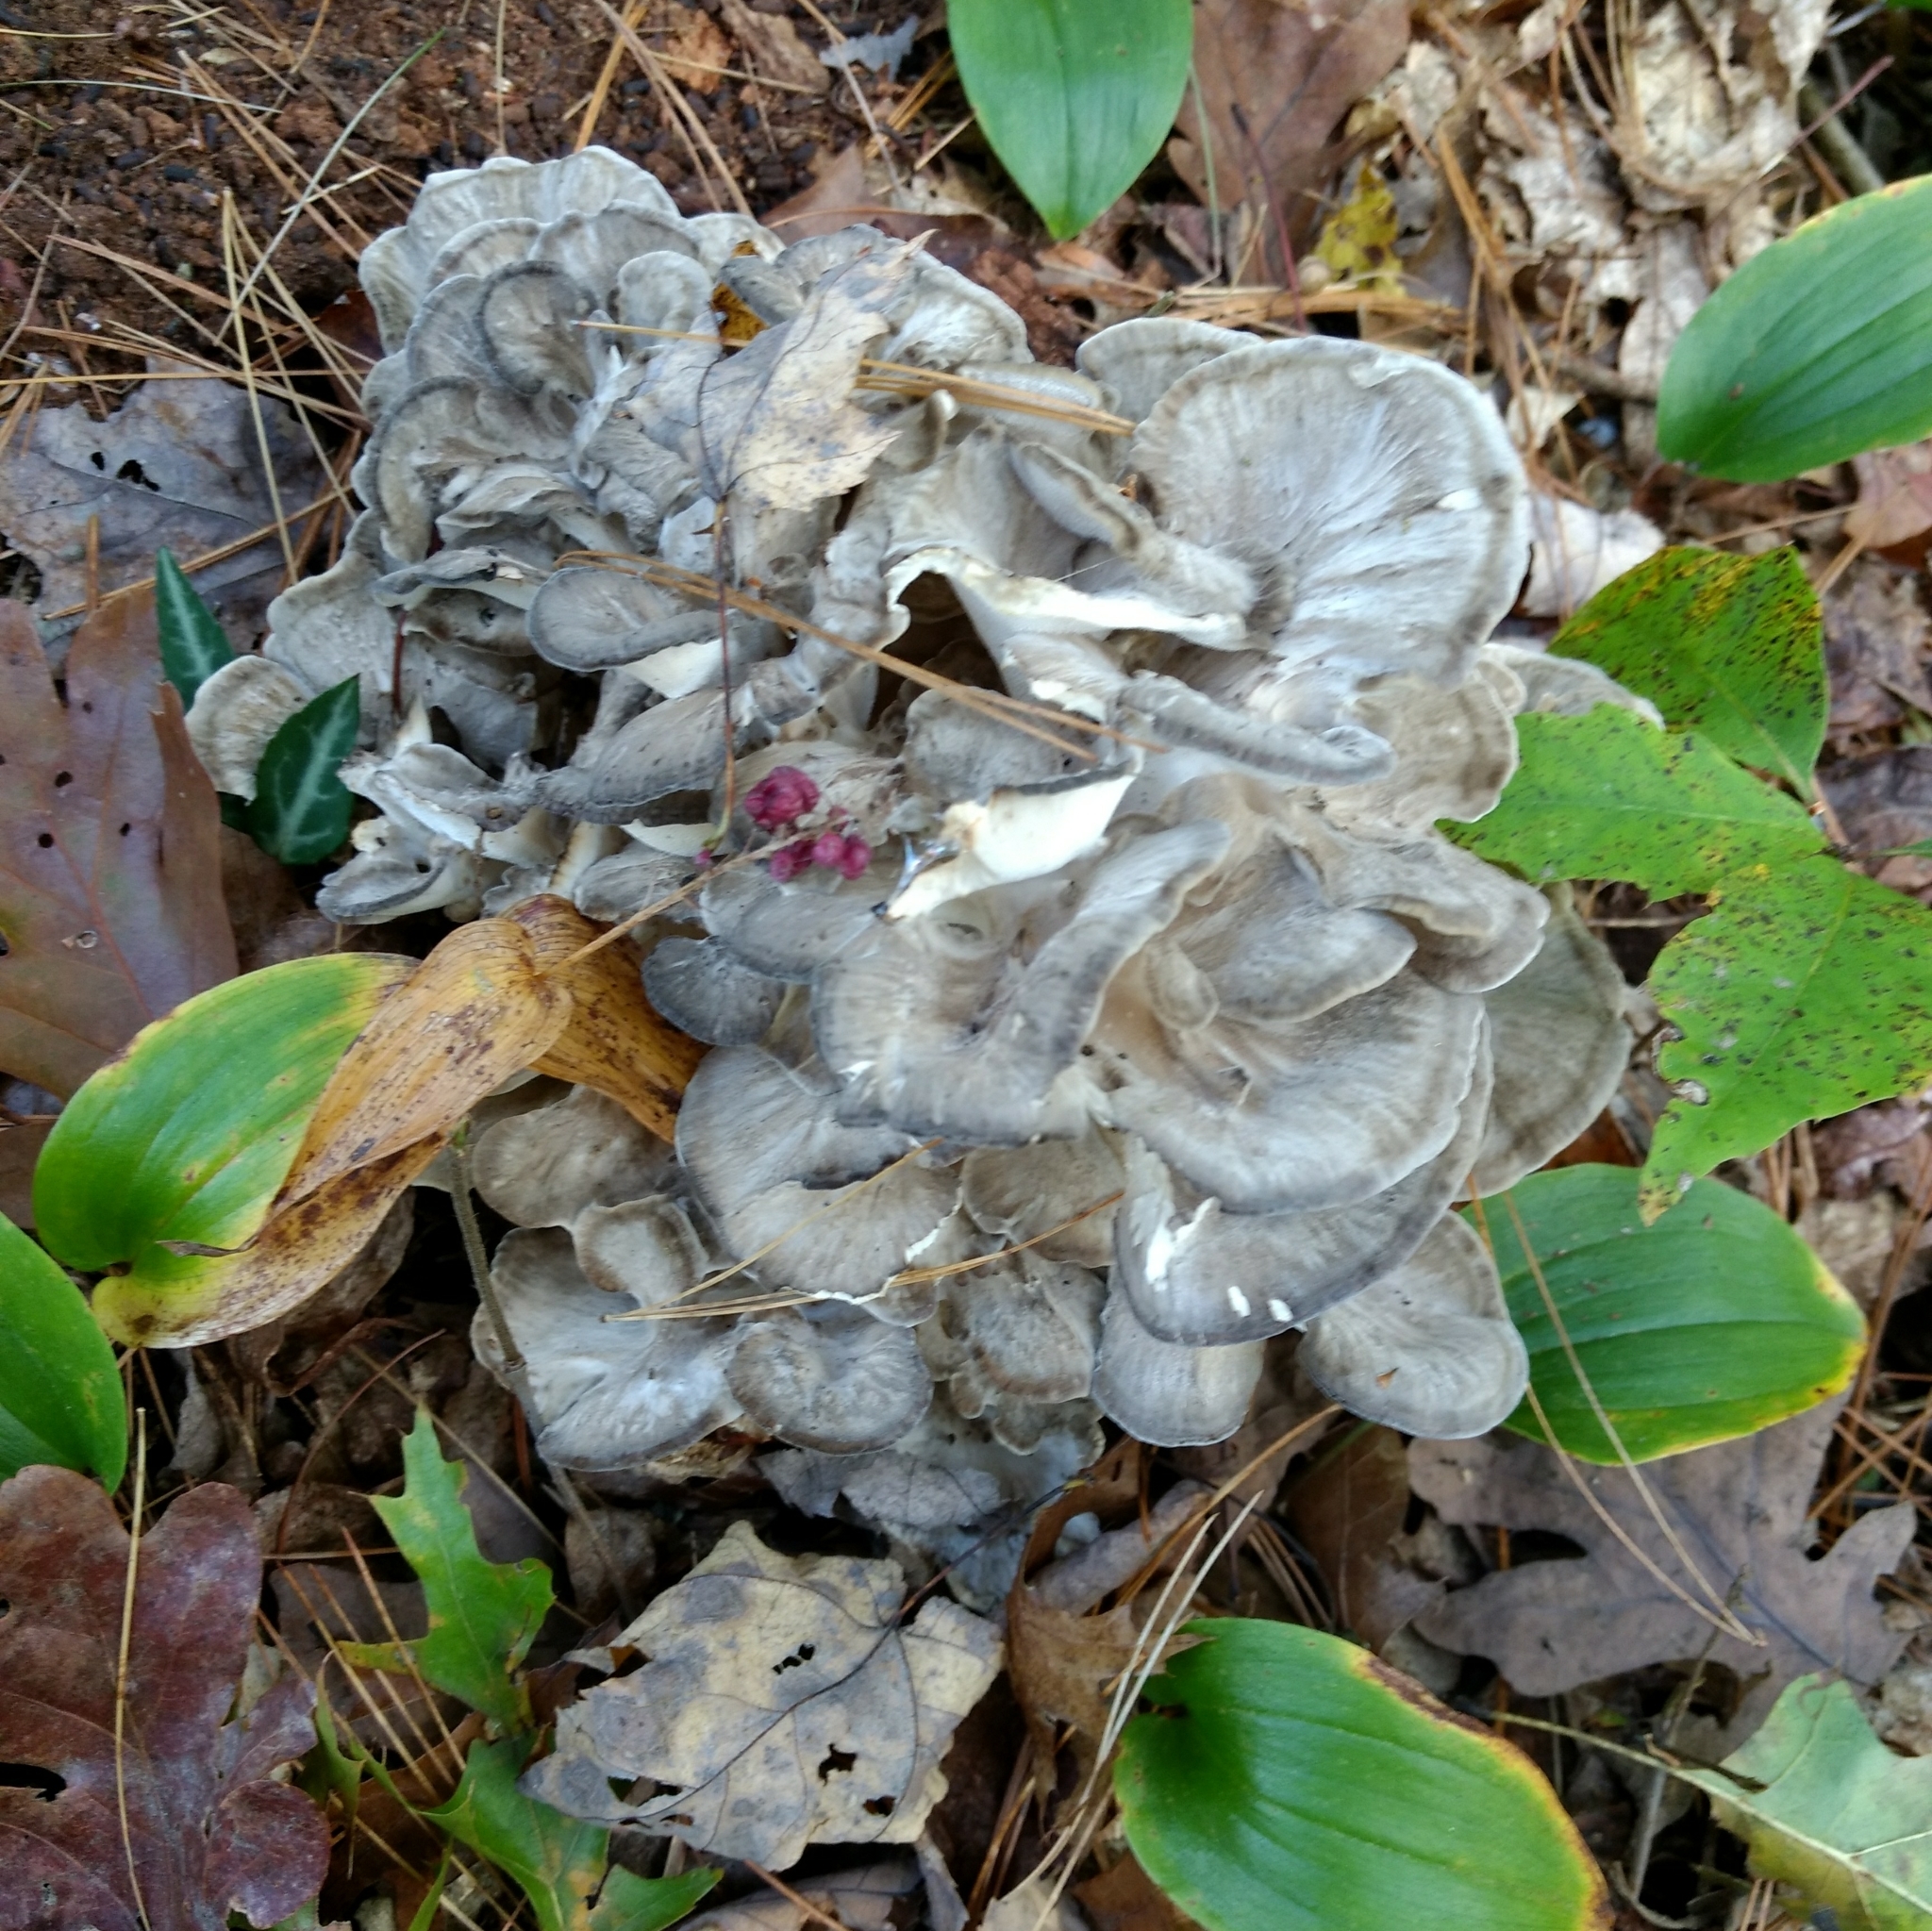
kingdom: Fungi
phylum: Basidiomycota
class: Agaricomycetes
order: Polyporales
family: Grifolaceae
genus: Grifola
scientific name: Grifola frondosa
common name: Hen of the woods
